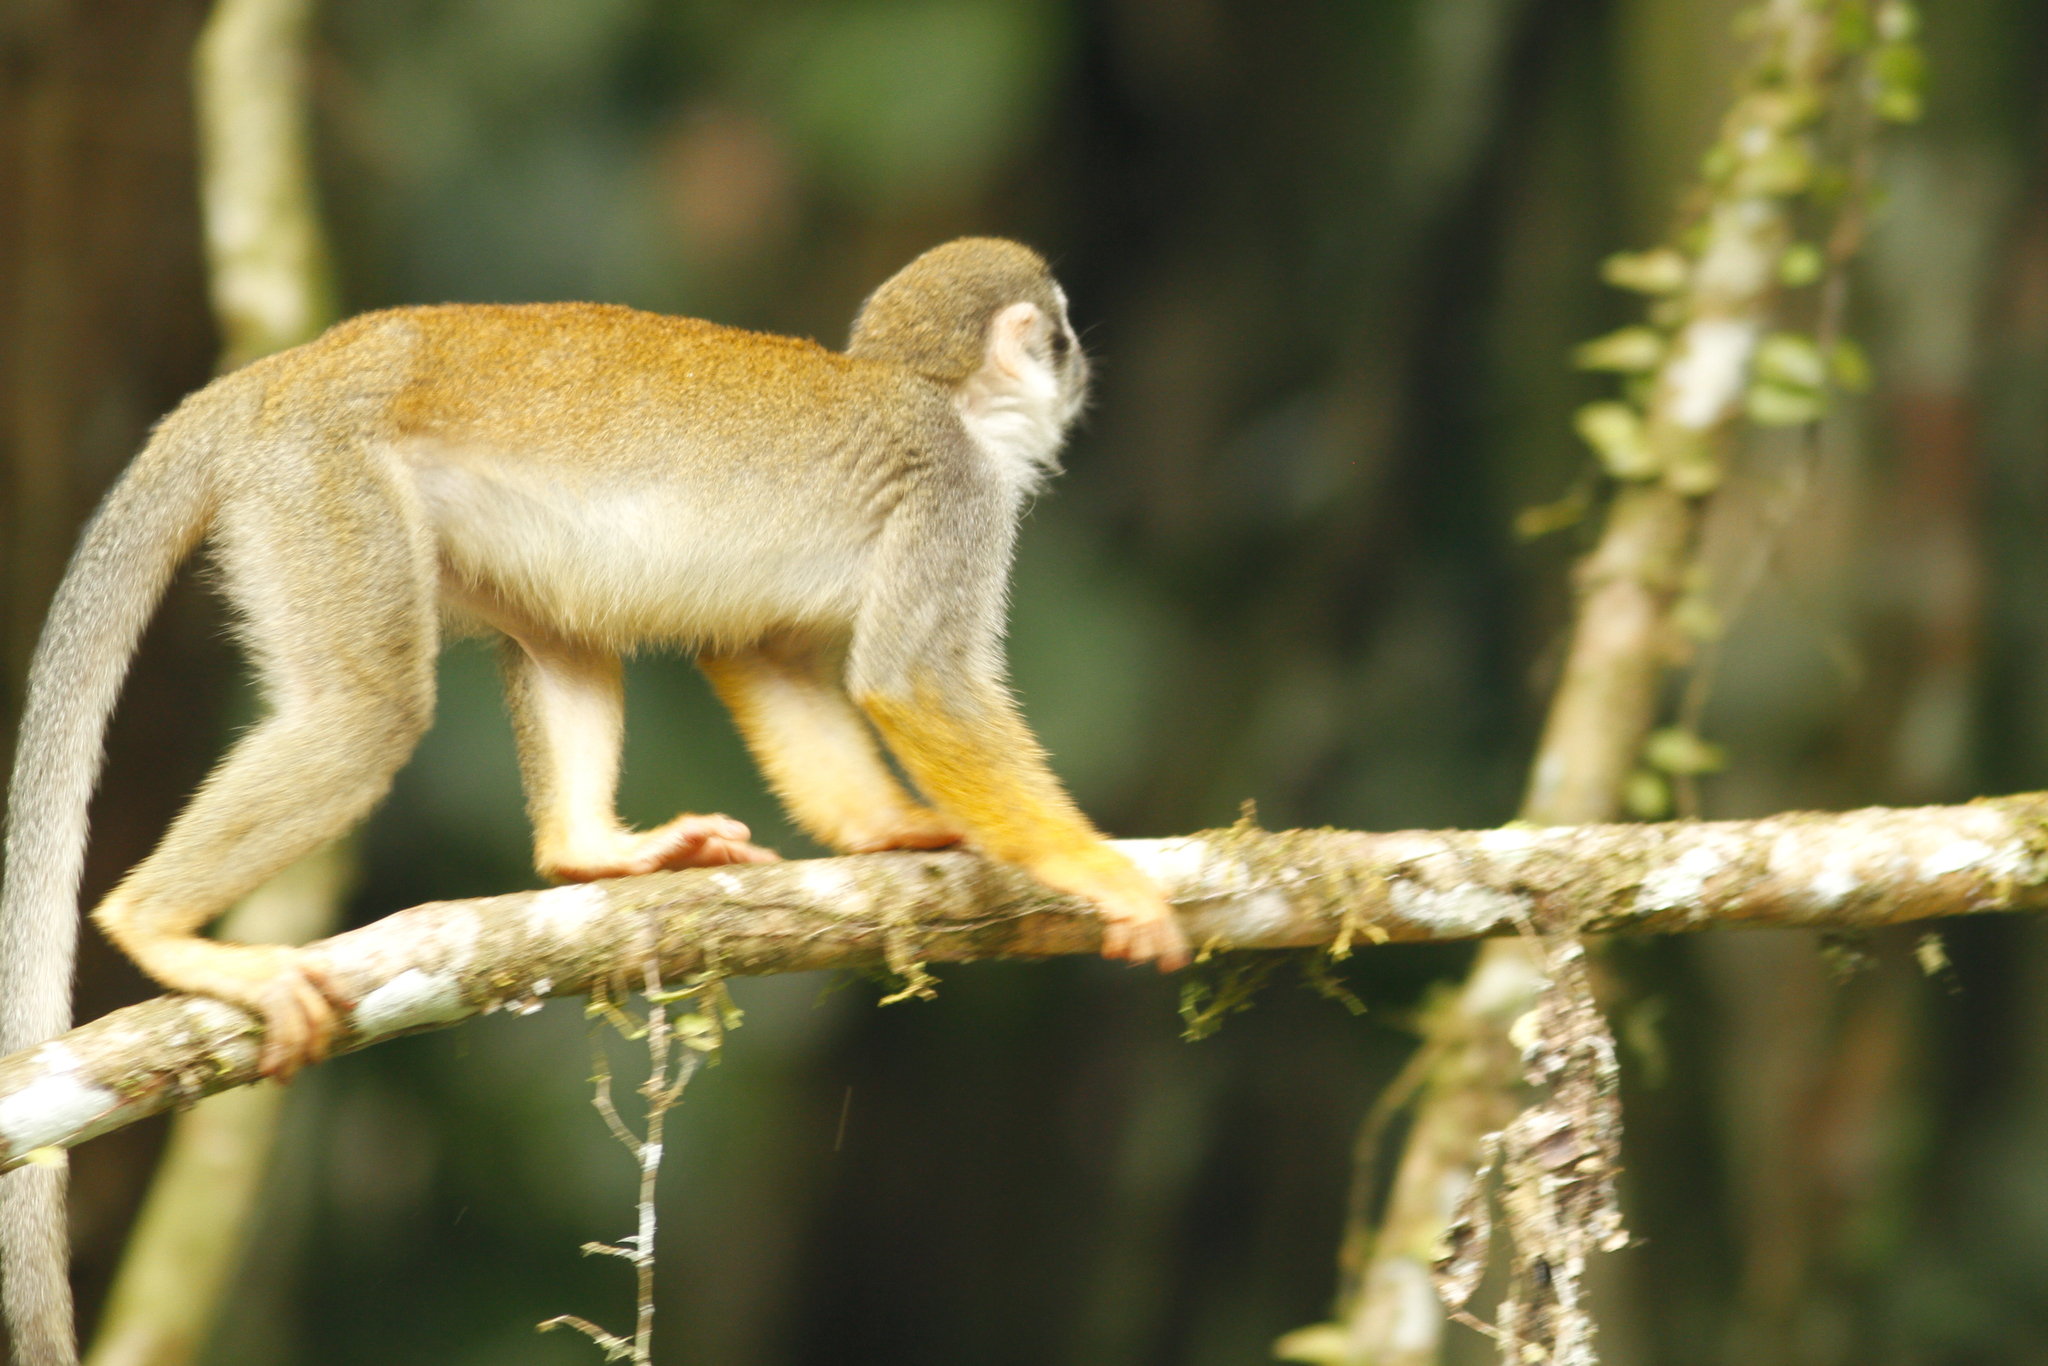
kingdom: Animalia
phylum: Chordata
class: Mammalia
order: Primates
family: Cebidae
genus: Saimiri
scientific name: Saimiri cassiquiarensis
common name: Humboldt’s squirrel monkey
